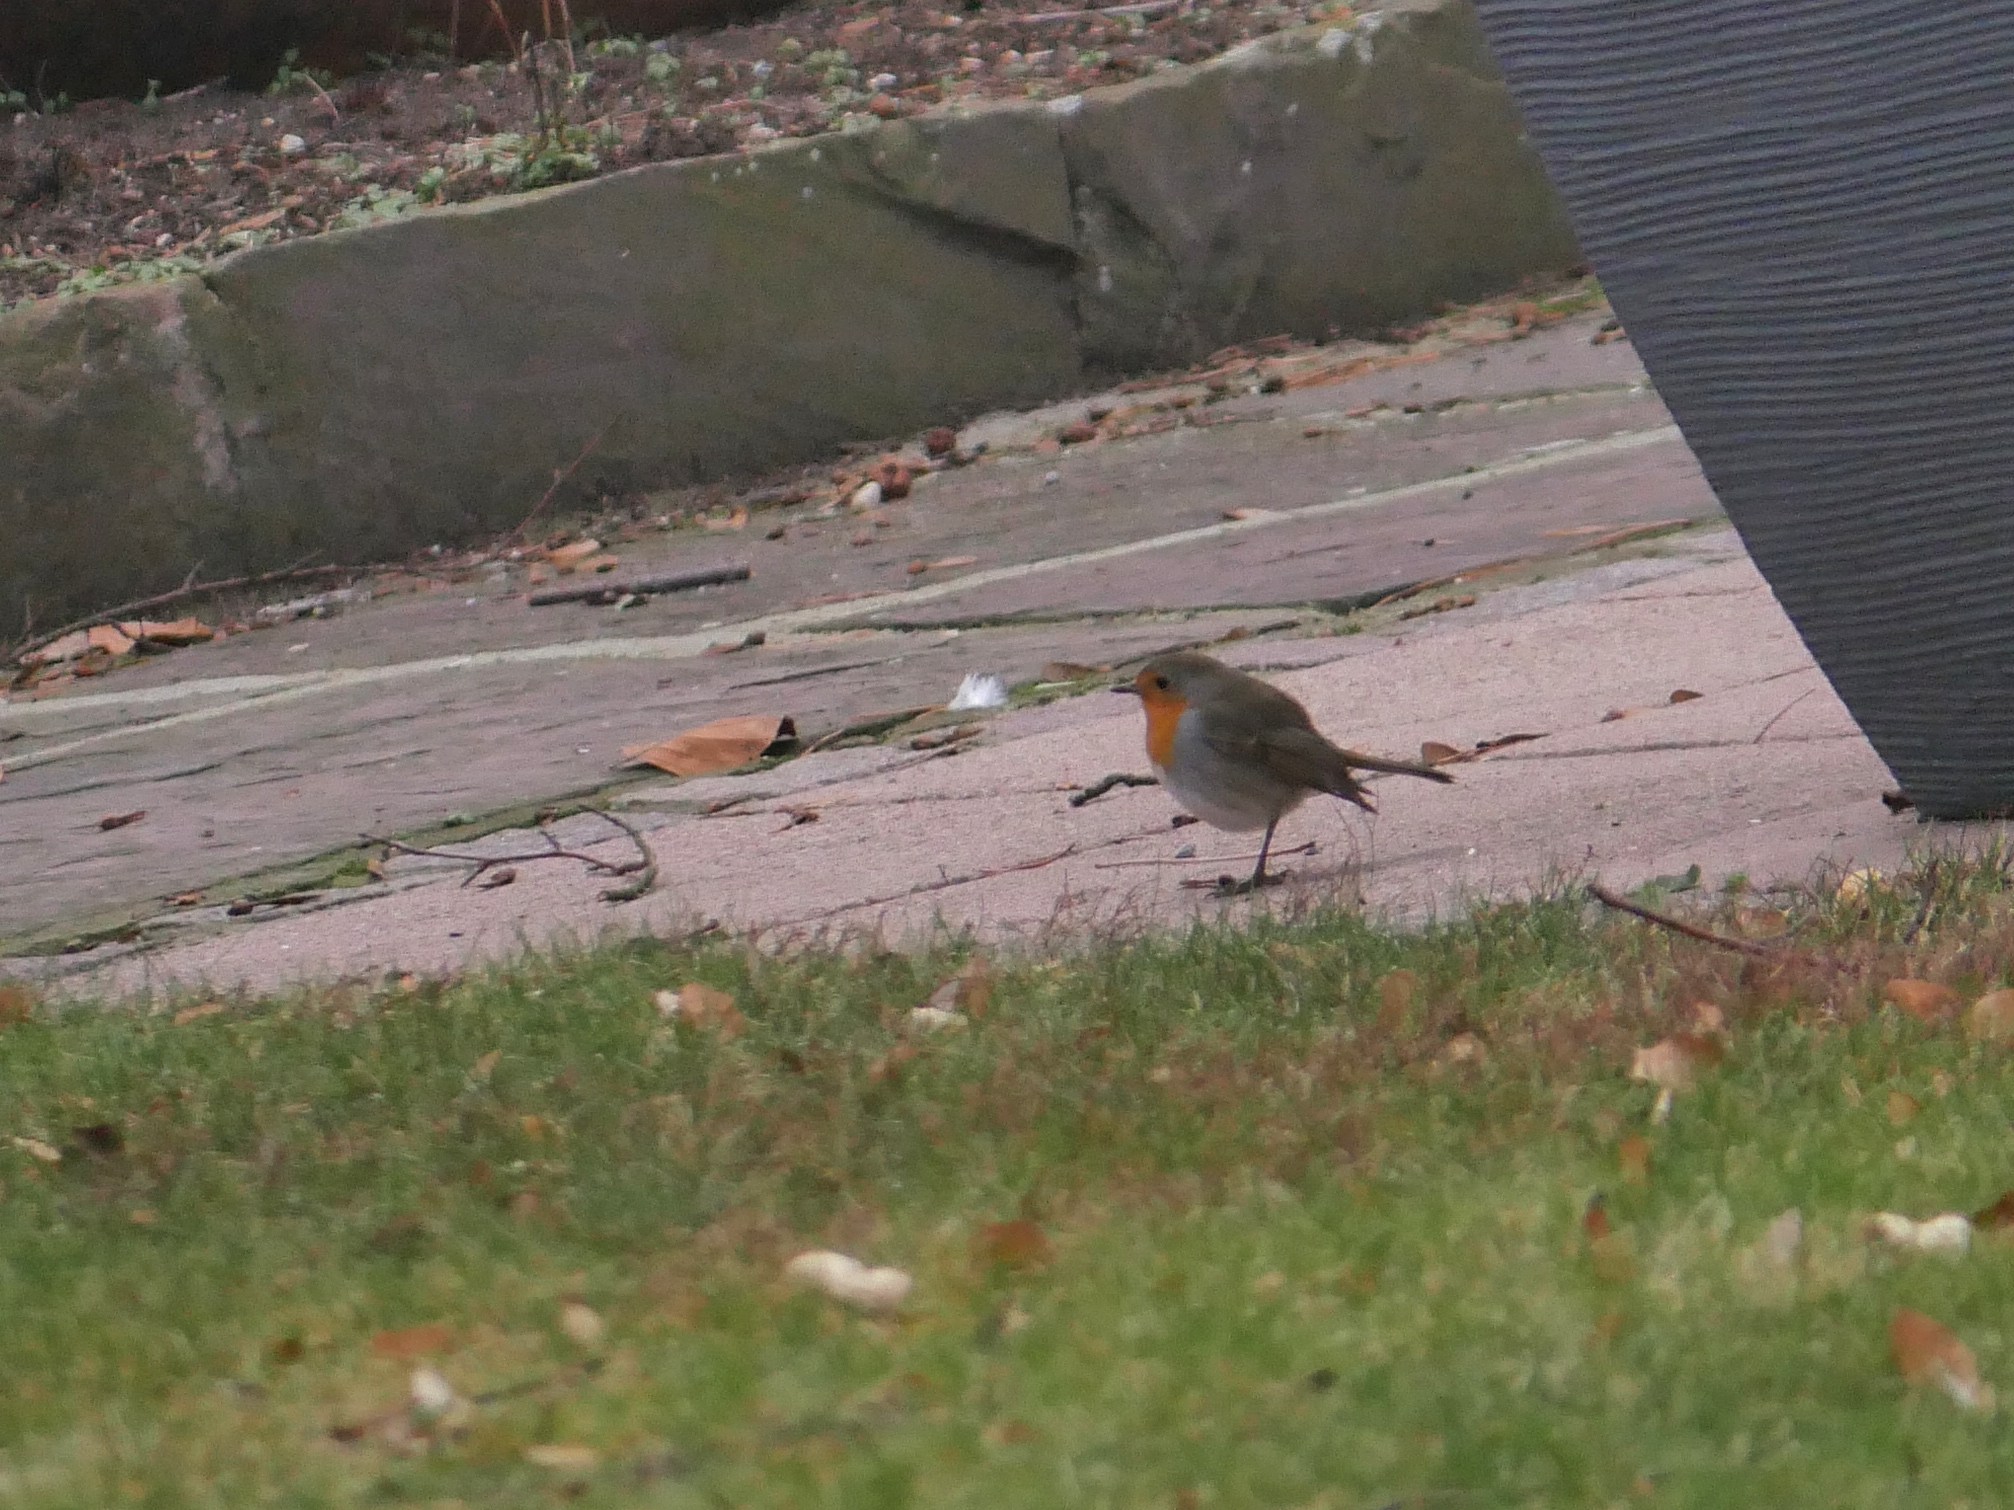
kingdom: Animalia
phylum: Chordata
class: Aves
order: Passeriformes
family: Muscicapidae
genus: Erithacus
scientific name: Erithacus rubecula
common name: European robin
